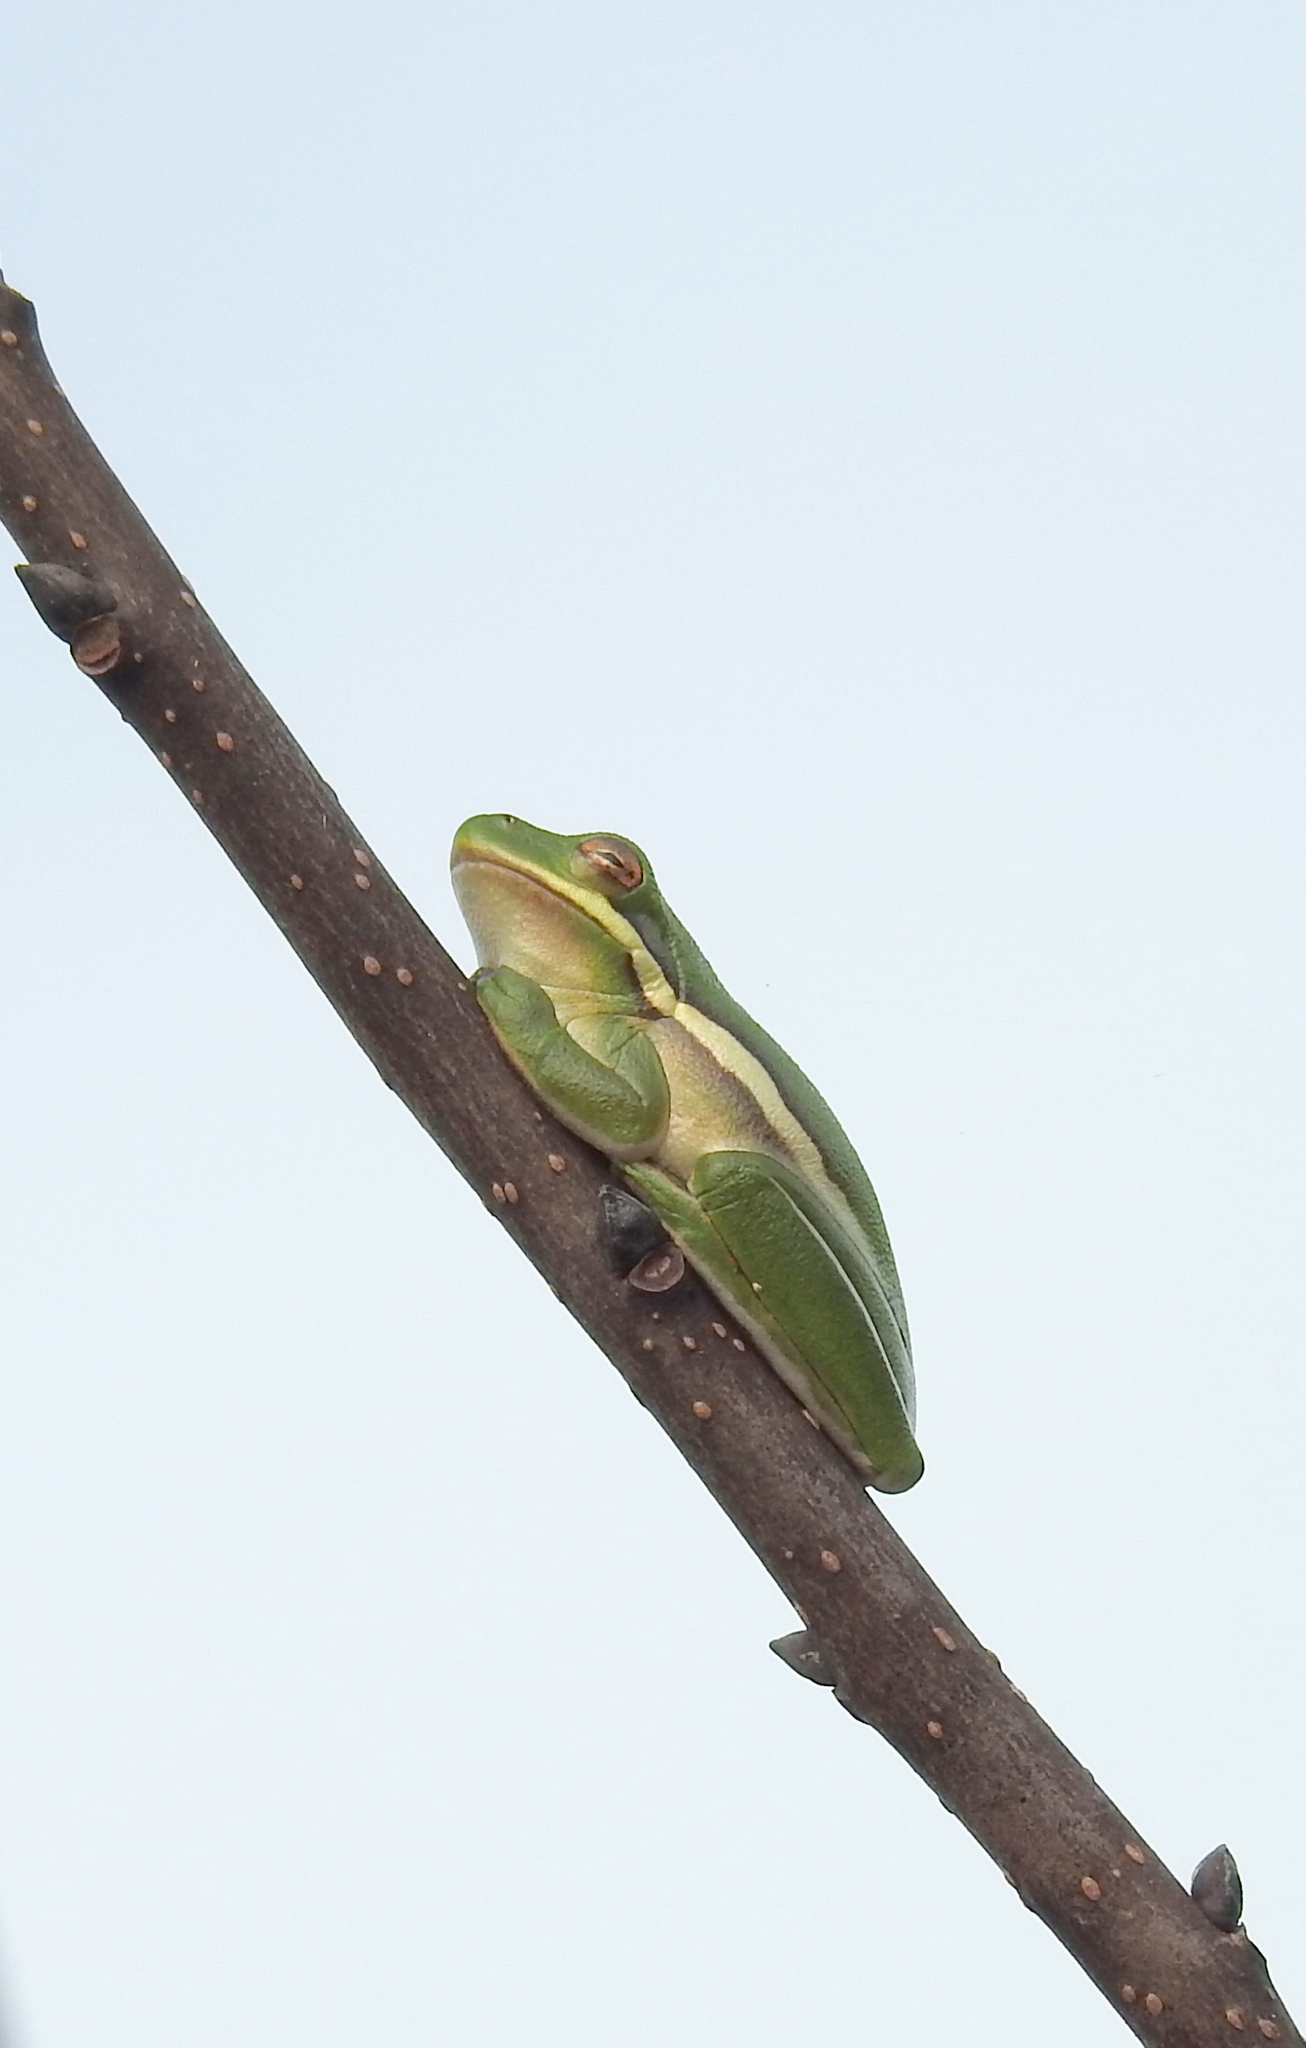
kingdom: Animalia
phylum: Chordata
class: Amphibia
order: Anura
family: Hylidae
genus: Dryophytes
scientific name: Dryophytes cinereus
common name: Green treefrog
